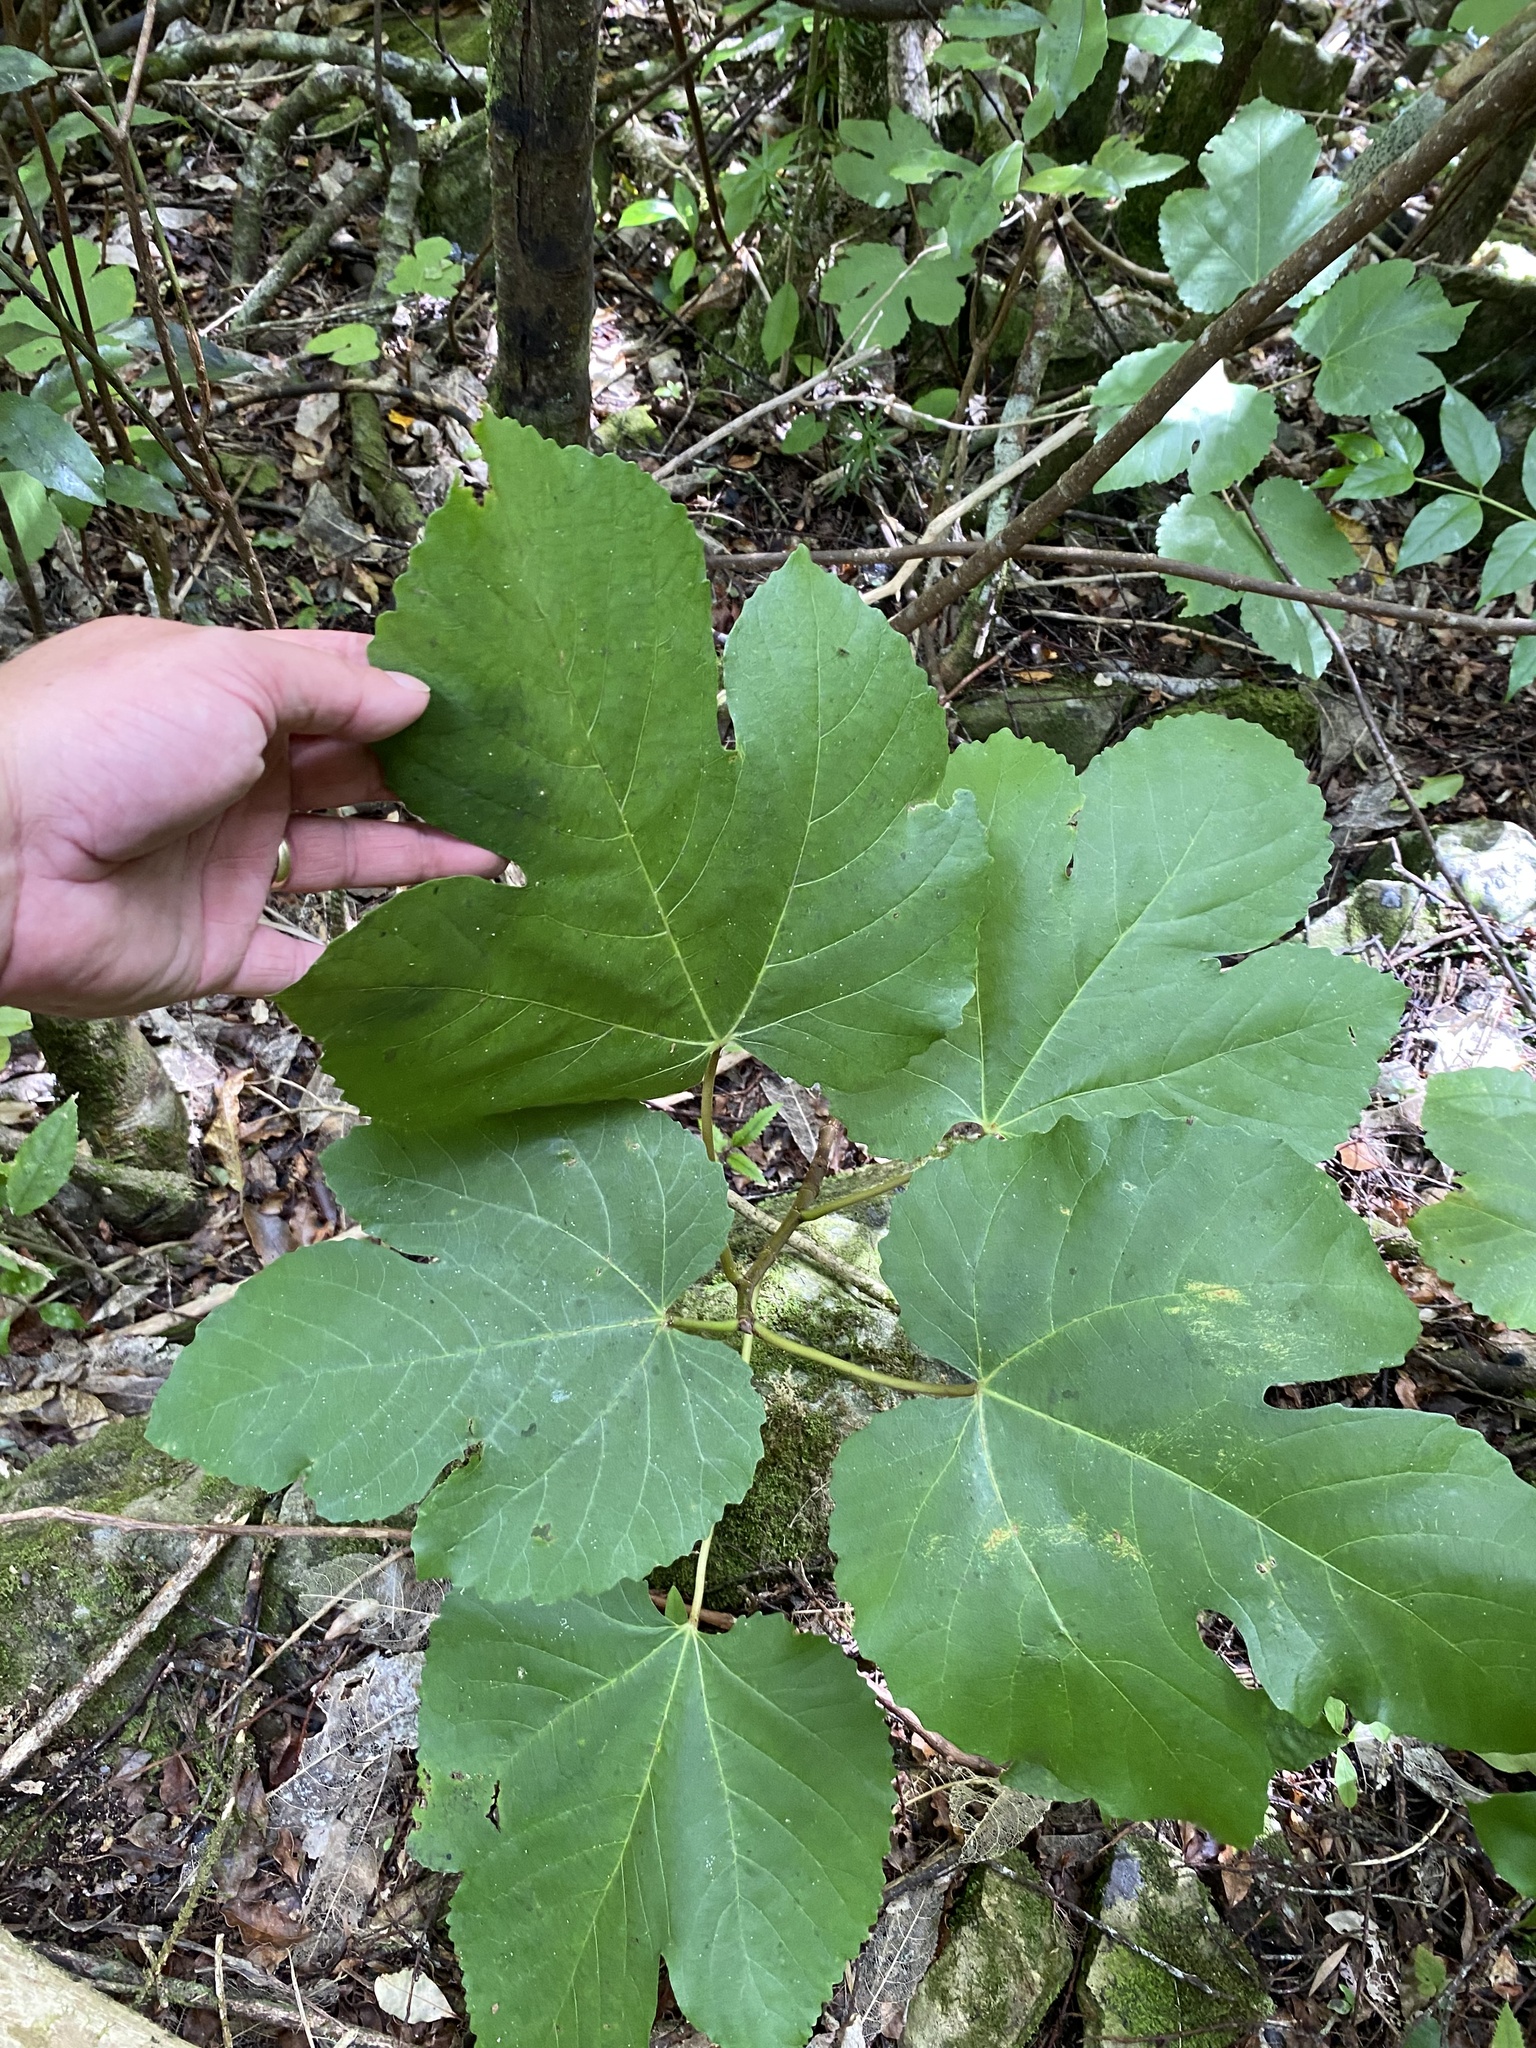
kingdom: Plantae
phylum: Tracheophyta
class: Magnoliopsida
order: Rosales
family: Moraceae
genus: Broussonetia
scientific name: Broussonetia papyrifera
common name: Paper mulberry
